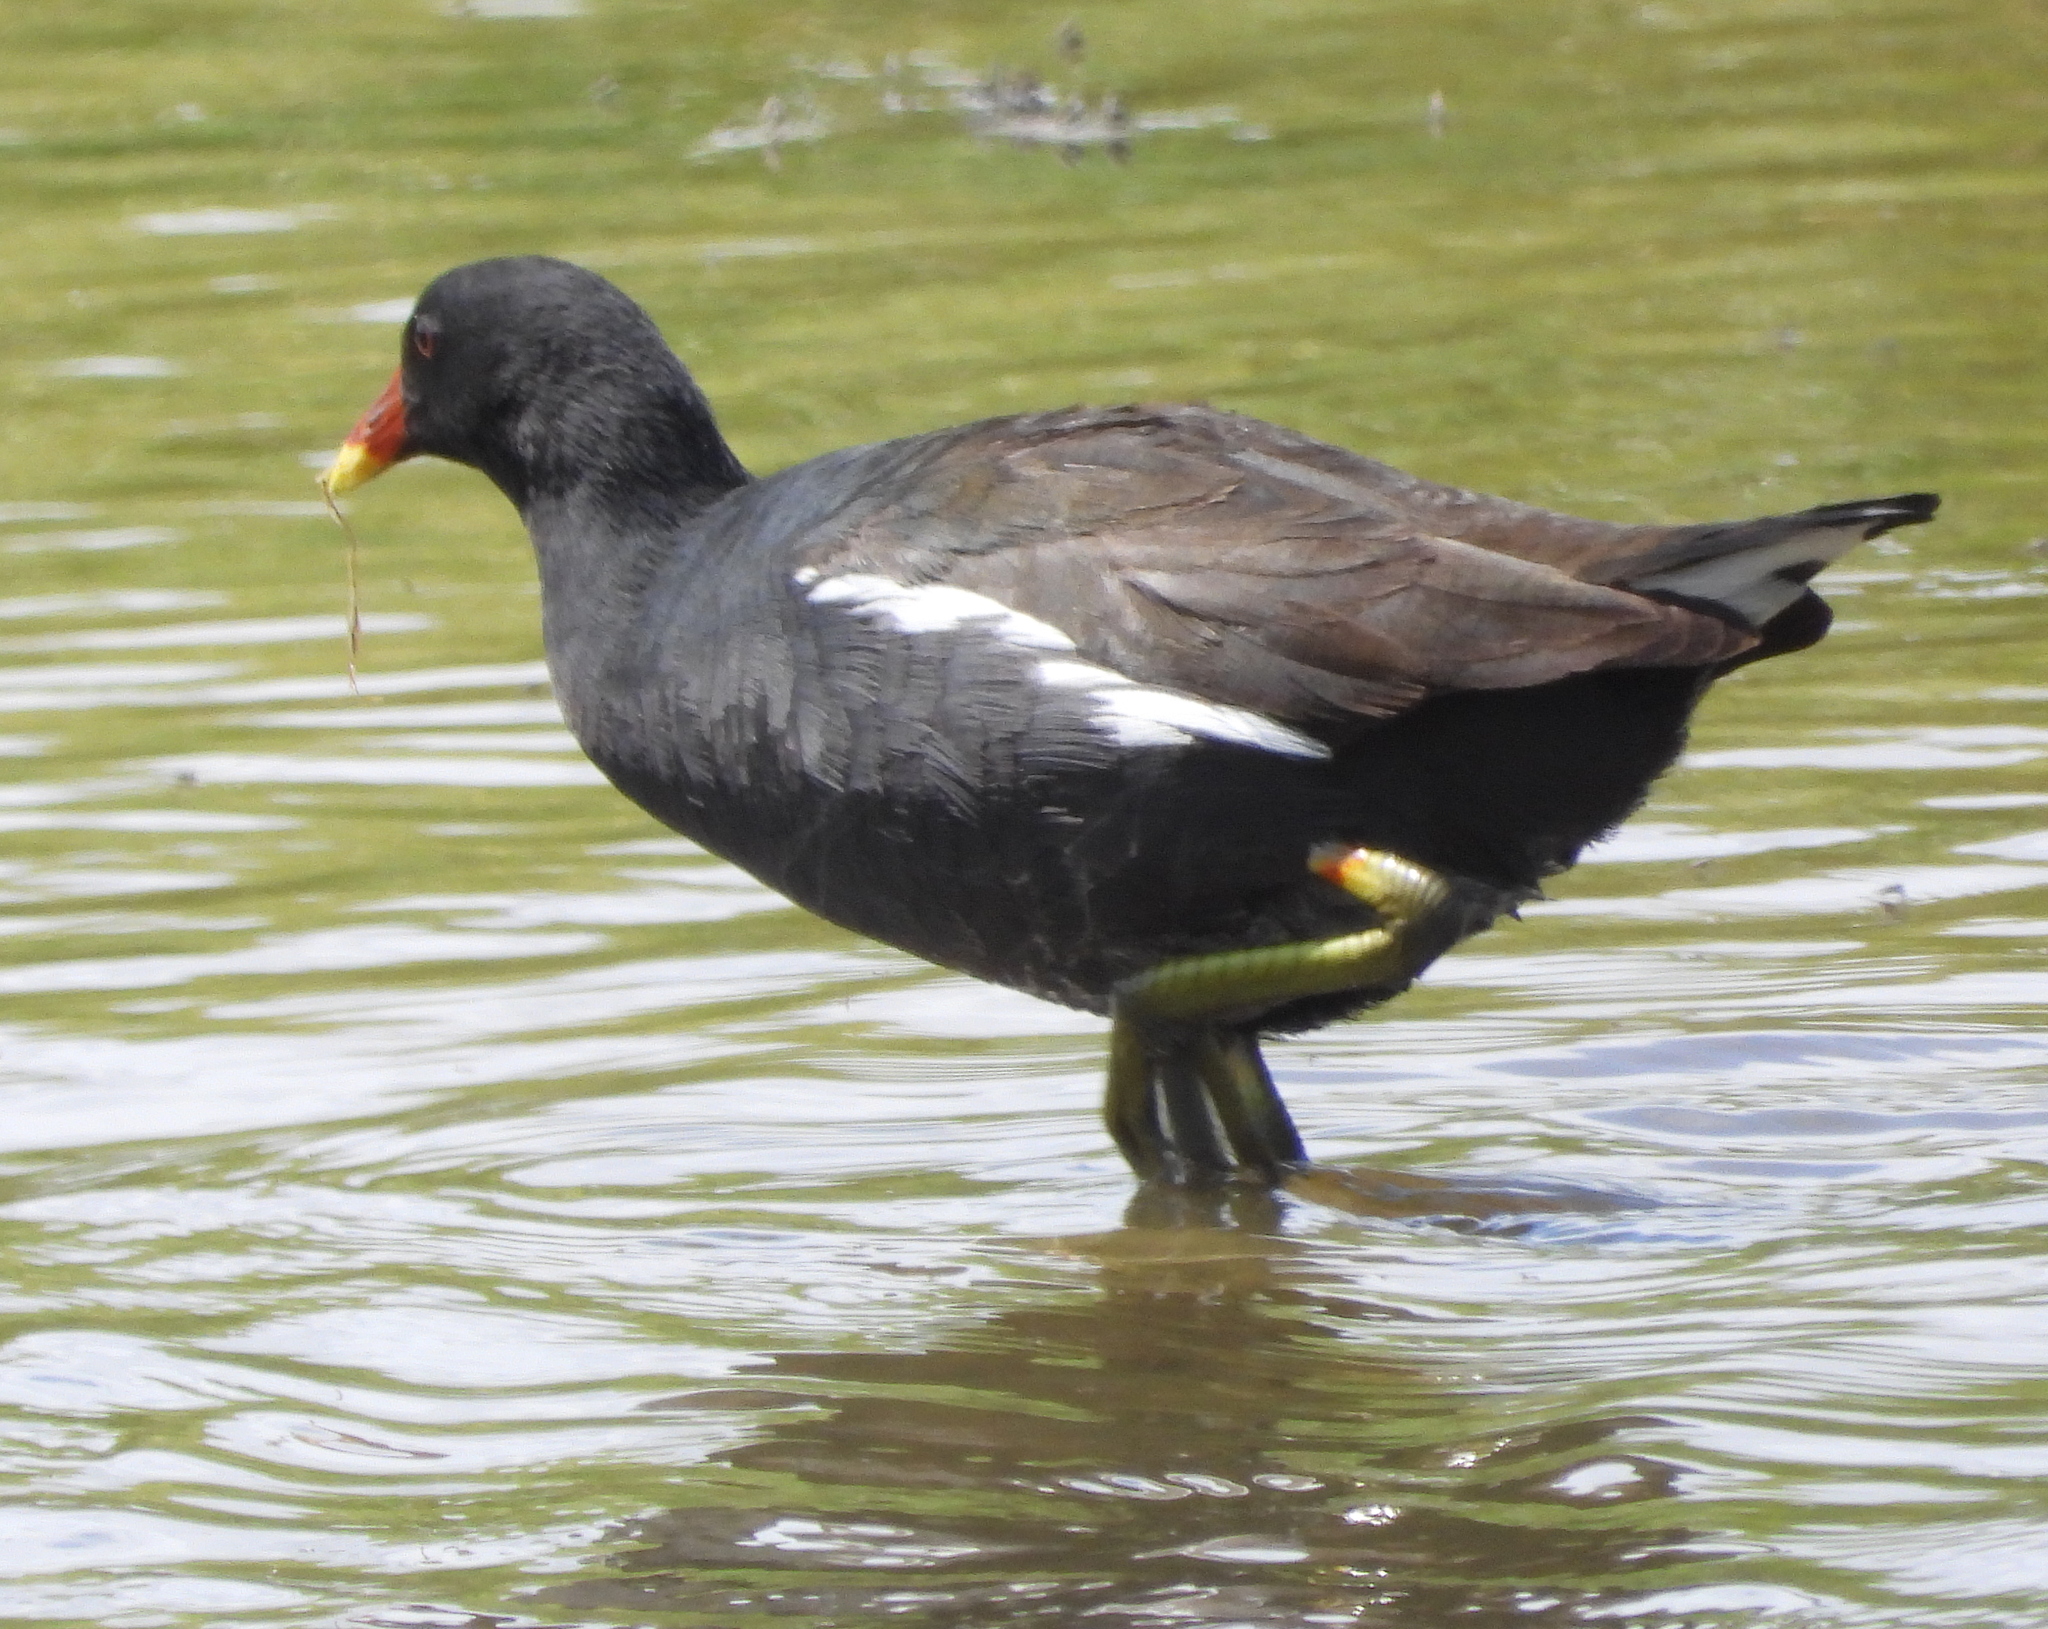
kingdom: Animalia
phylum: Chordata
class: Aves
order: Gruiformes
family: Rallidae
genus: Gallinula
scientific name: Gallinula chloropus
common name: Common moorhen
